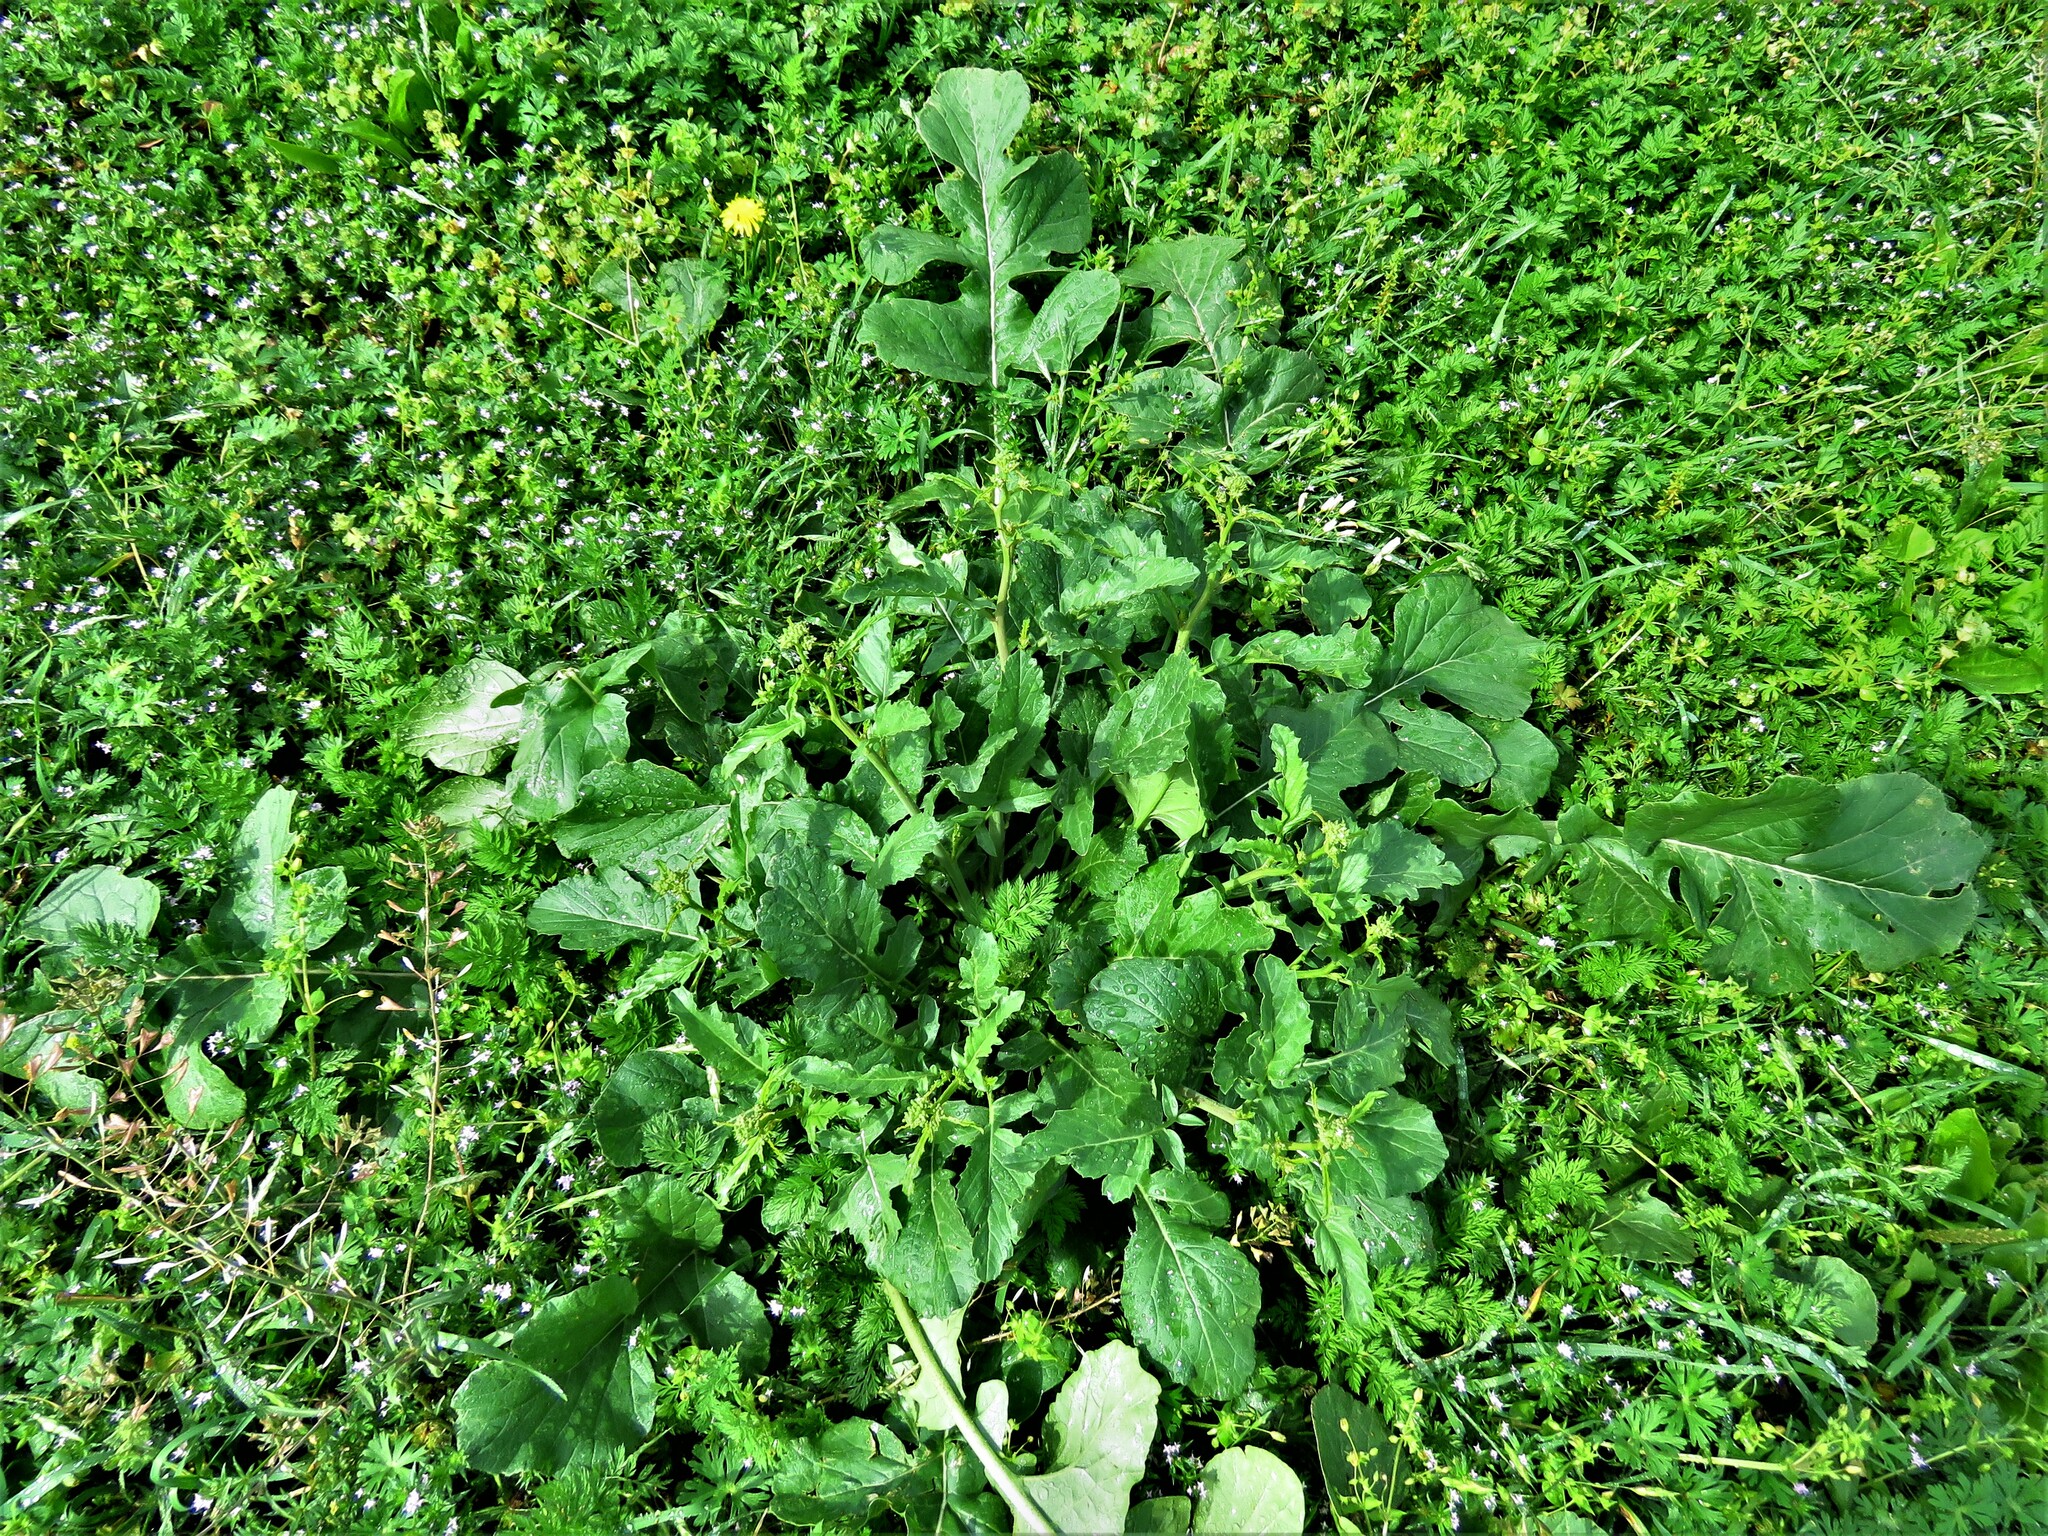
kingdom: Plantae
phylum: Tracheophyta
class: Magnoliopsida
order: Brassicales
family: Brassicaceae
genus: Rapistrum
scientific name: Rapistrum rugosum
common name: Annual bastardcabbage
